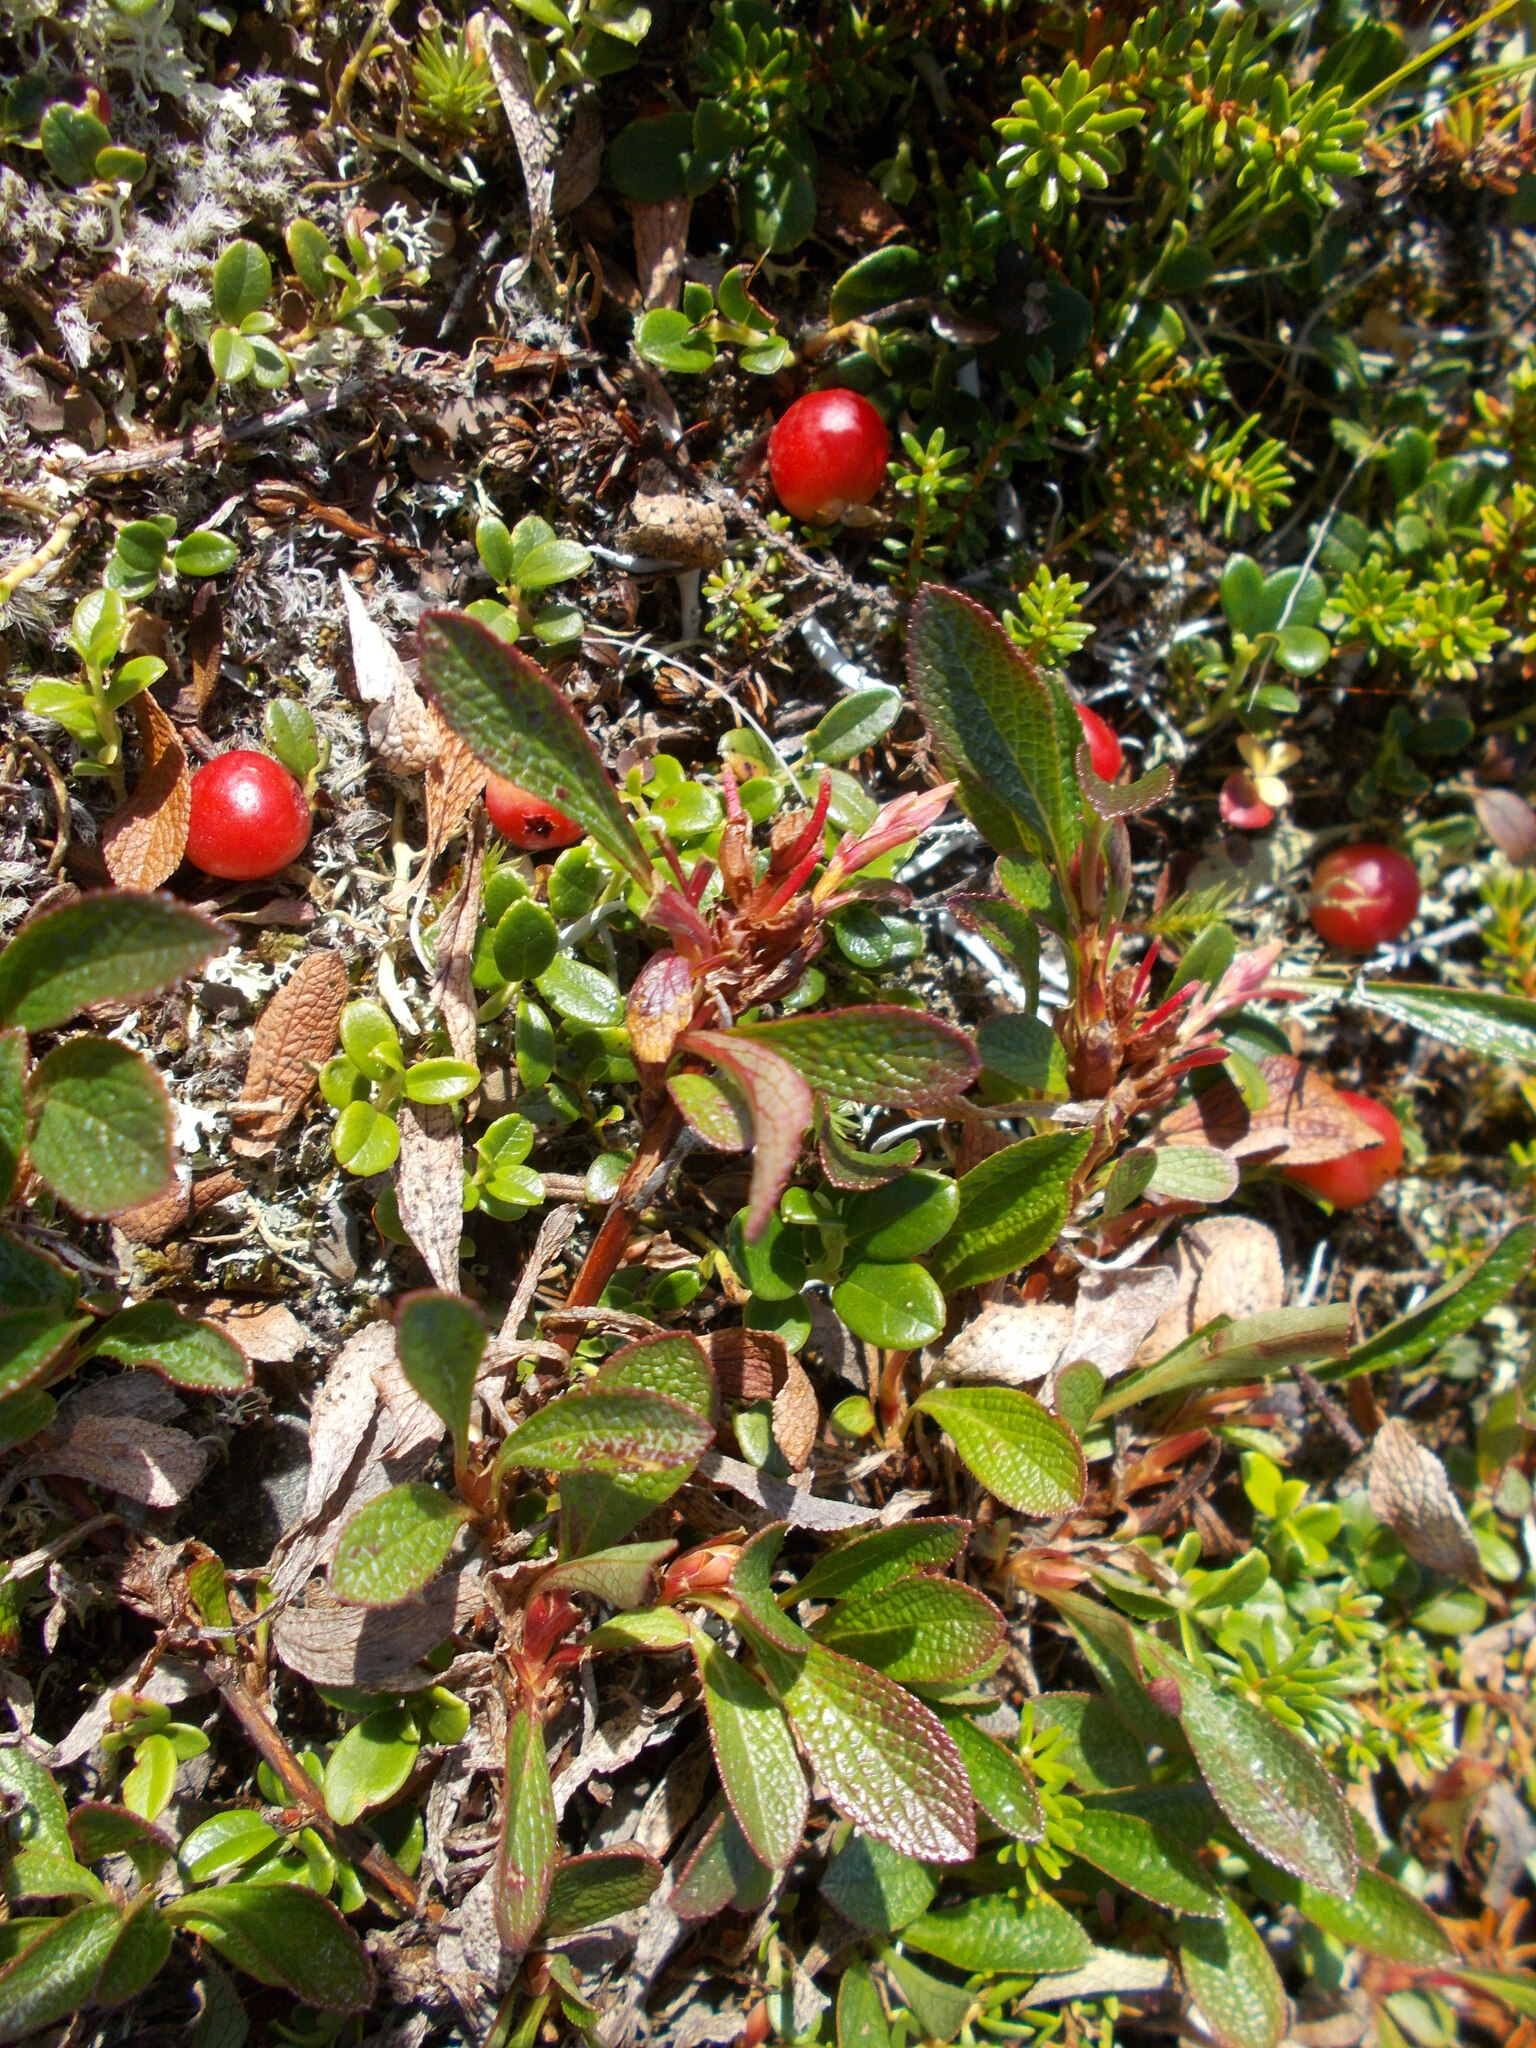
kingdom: Plantae
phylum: Tracheophyta
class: Magnoliopsida
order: Ericales
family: Ericaceae
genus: Arctostaphylos
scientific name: Arctostaphylos alpinus
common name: Alpine bearberry
